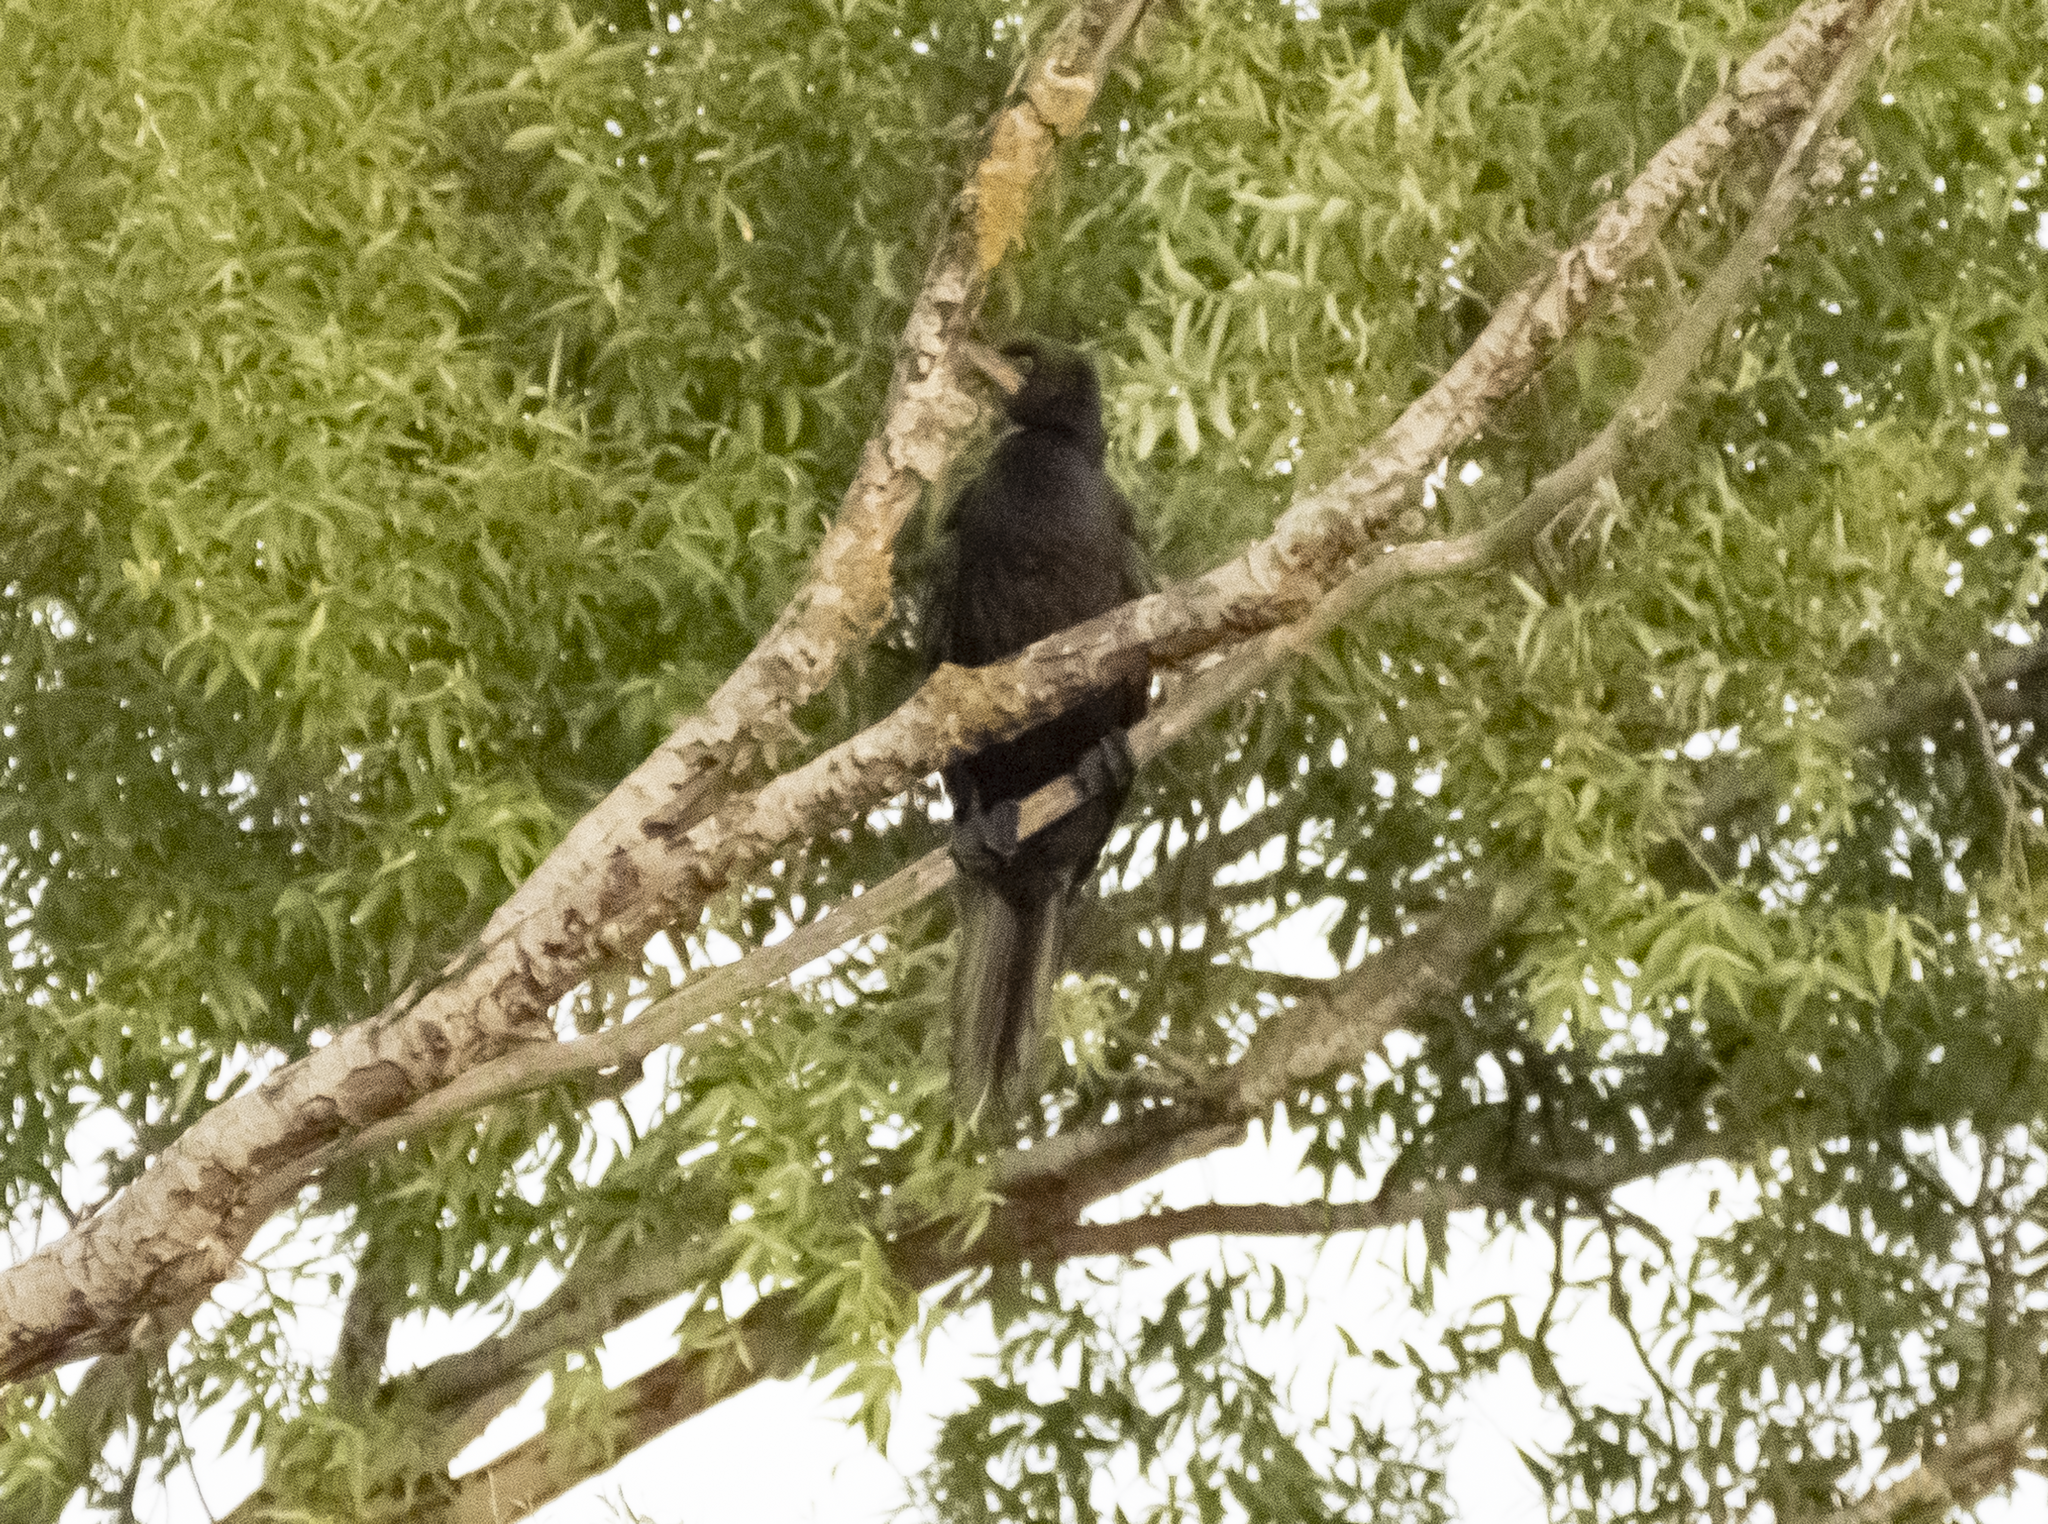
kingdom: Animalia
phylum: Chordata
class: Aves
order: Suliformes
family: Phalacrocoracidae
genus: Microcarbo
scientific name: Microcarbo melanoleucos
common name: Little pied cormorant
